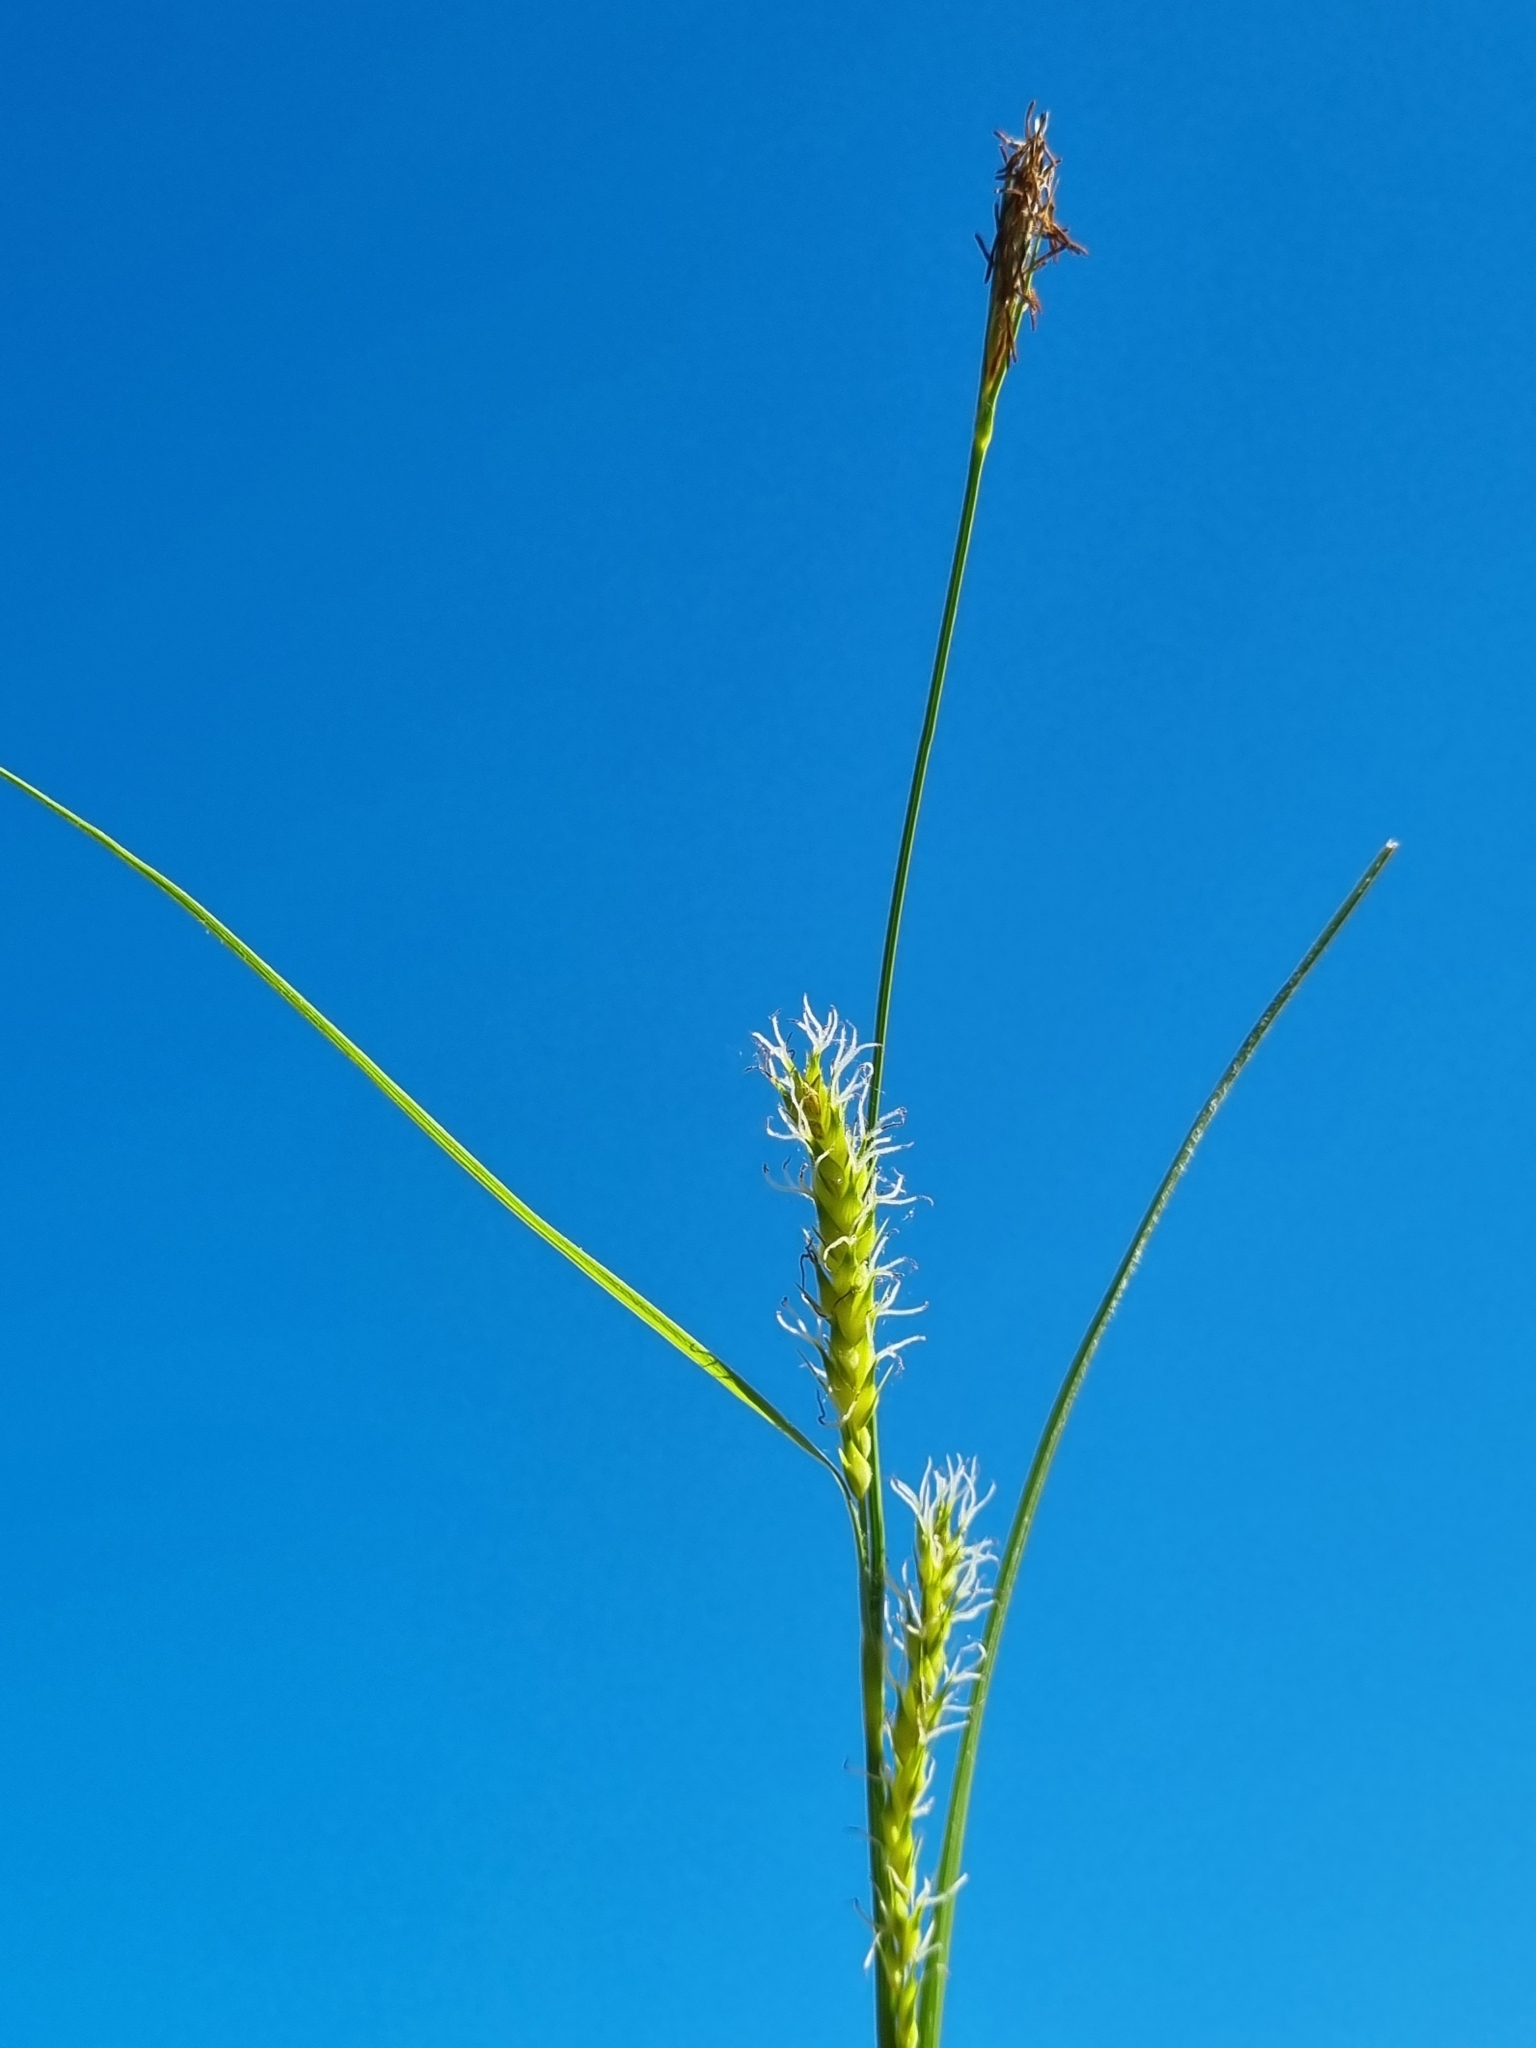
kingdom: Plantae
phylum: Tracheophyta
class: Liliopsida
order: Poales
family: Cyperaceae
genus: Carex
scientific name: Carex hirta
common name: Hairy sedge
